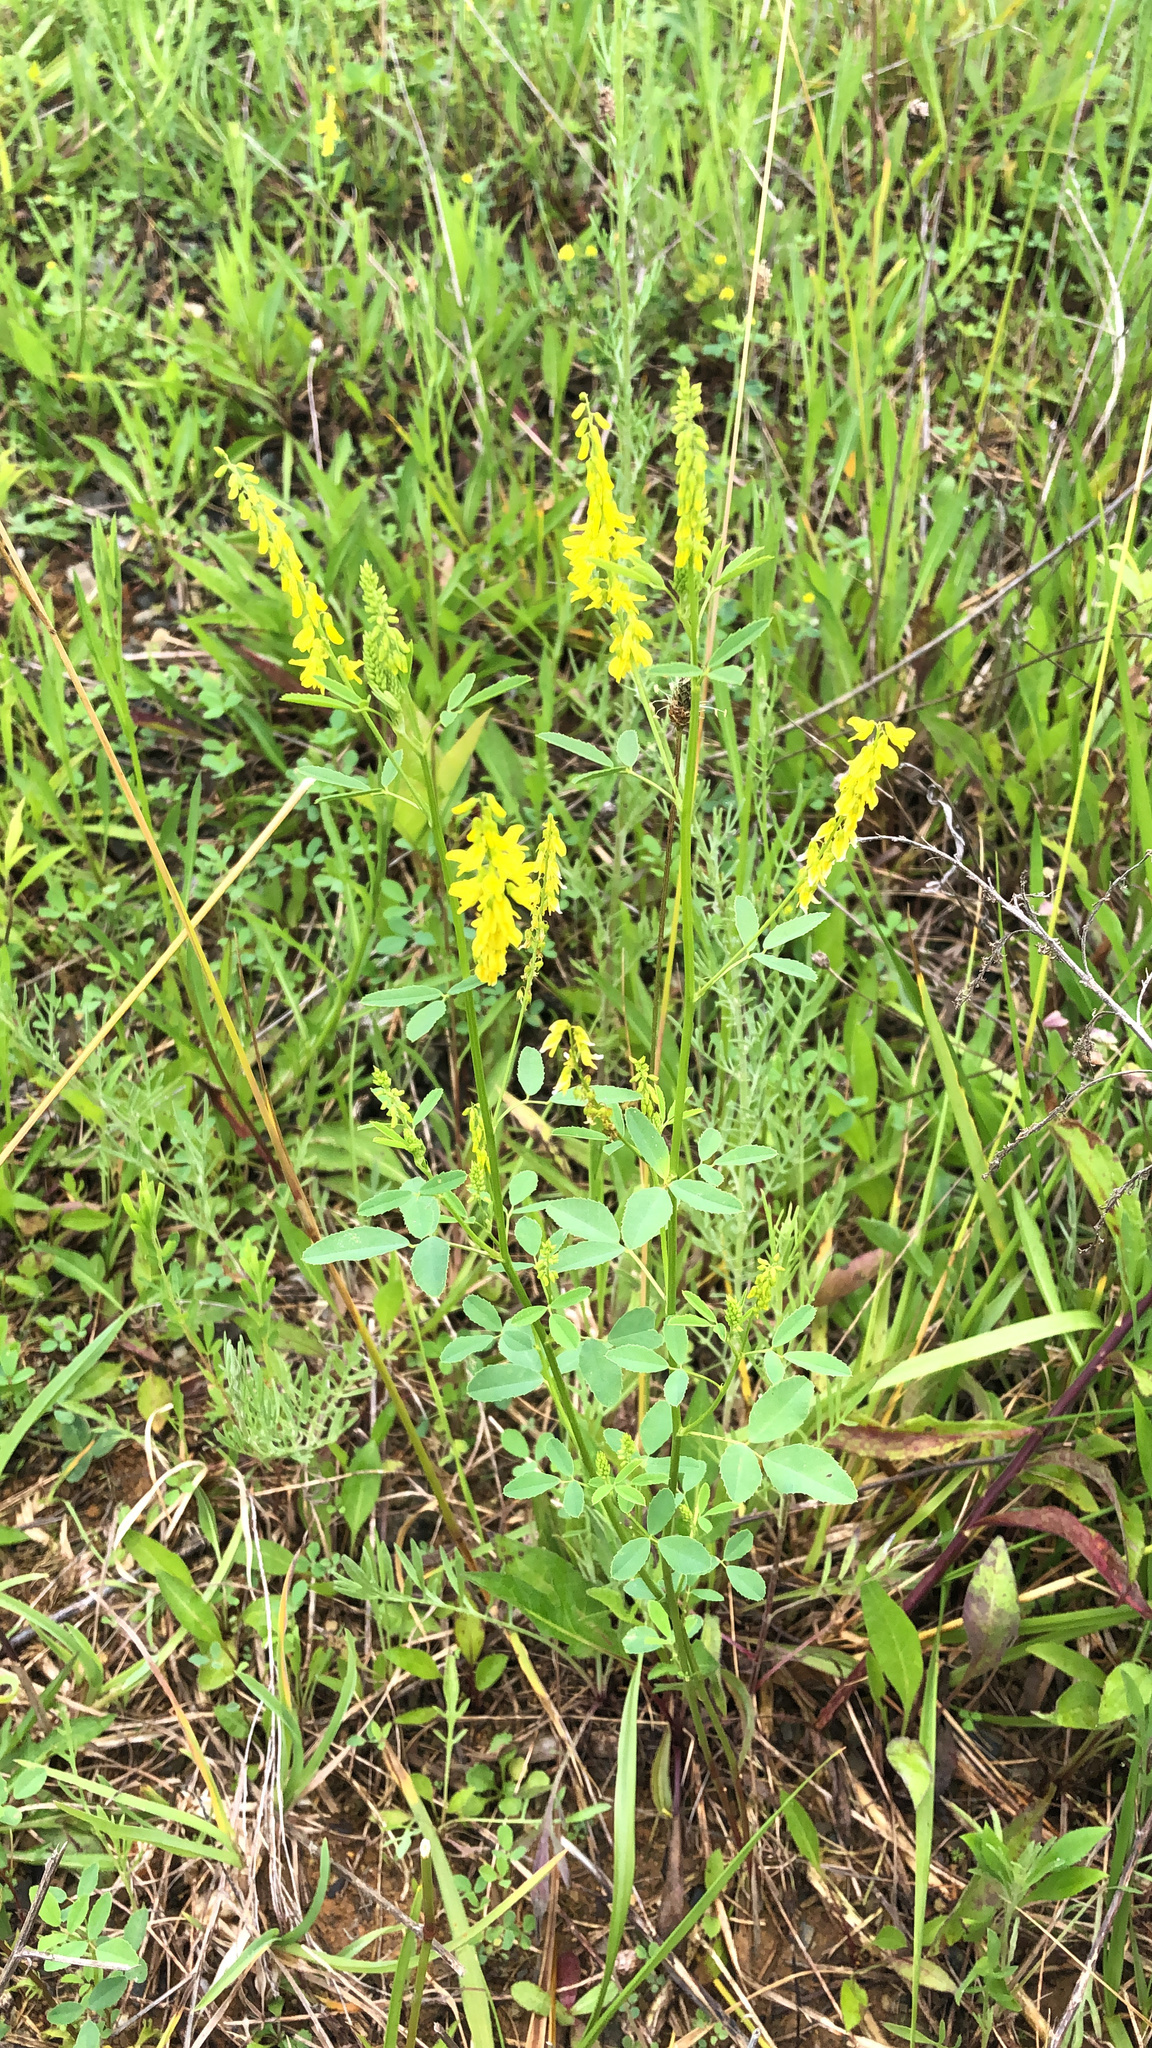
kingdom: Plantae
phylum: Tracheophyta
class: Magnoliopsida
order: Fabales
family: Fabaceae
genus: Melilotus
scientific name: Melilotus officinalis
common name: Sweetclover
